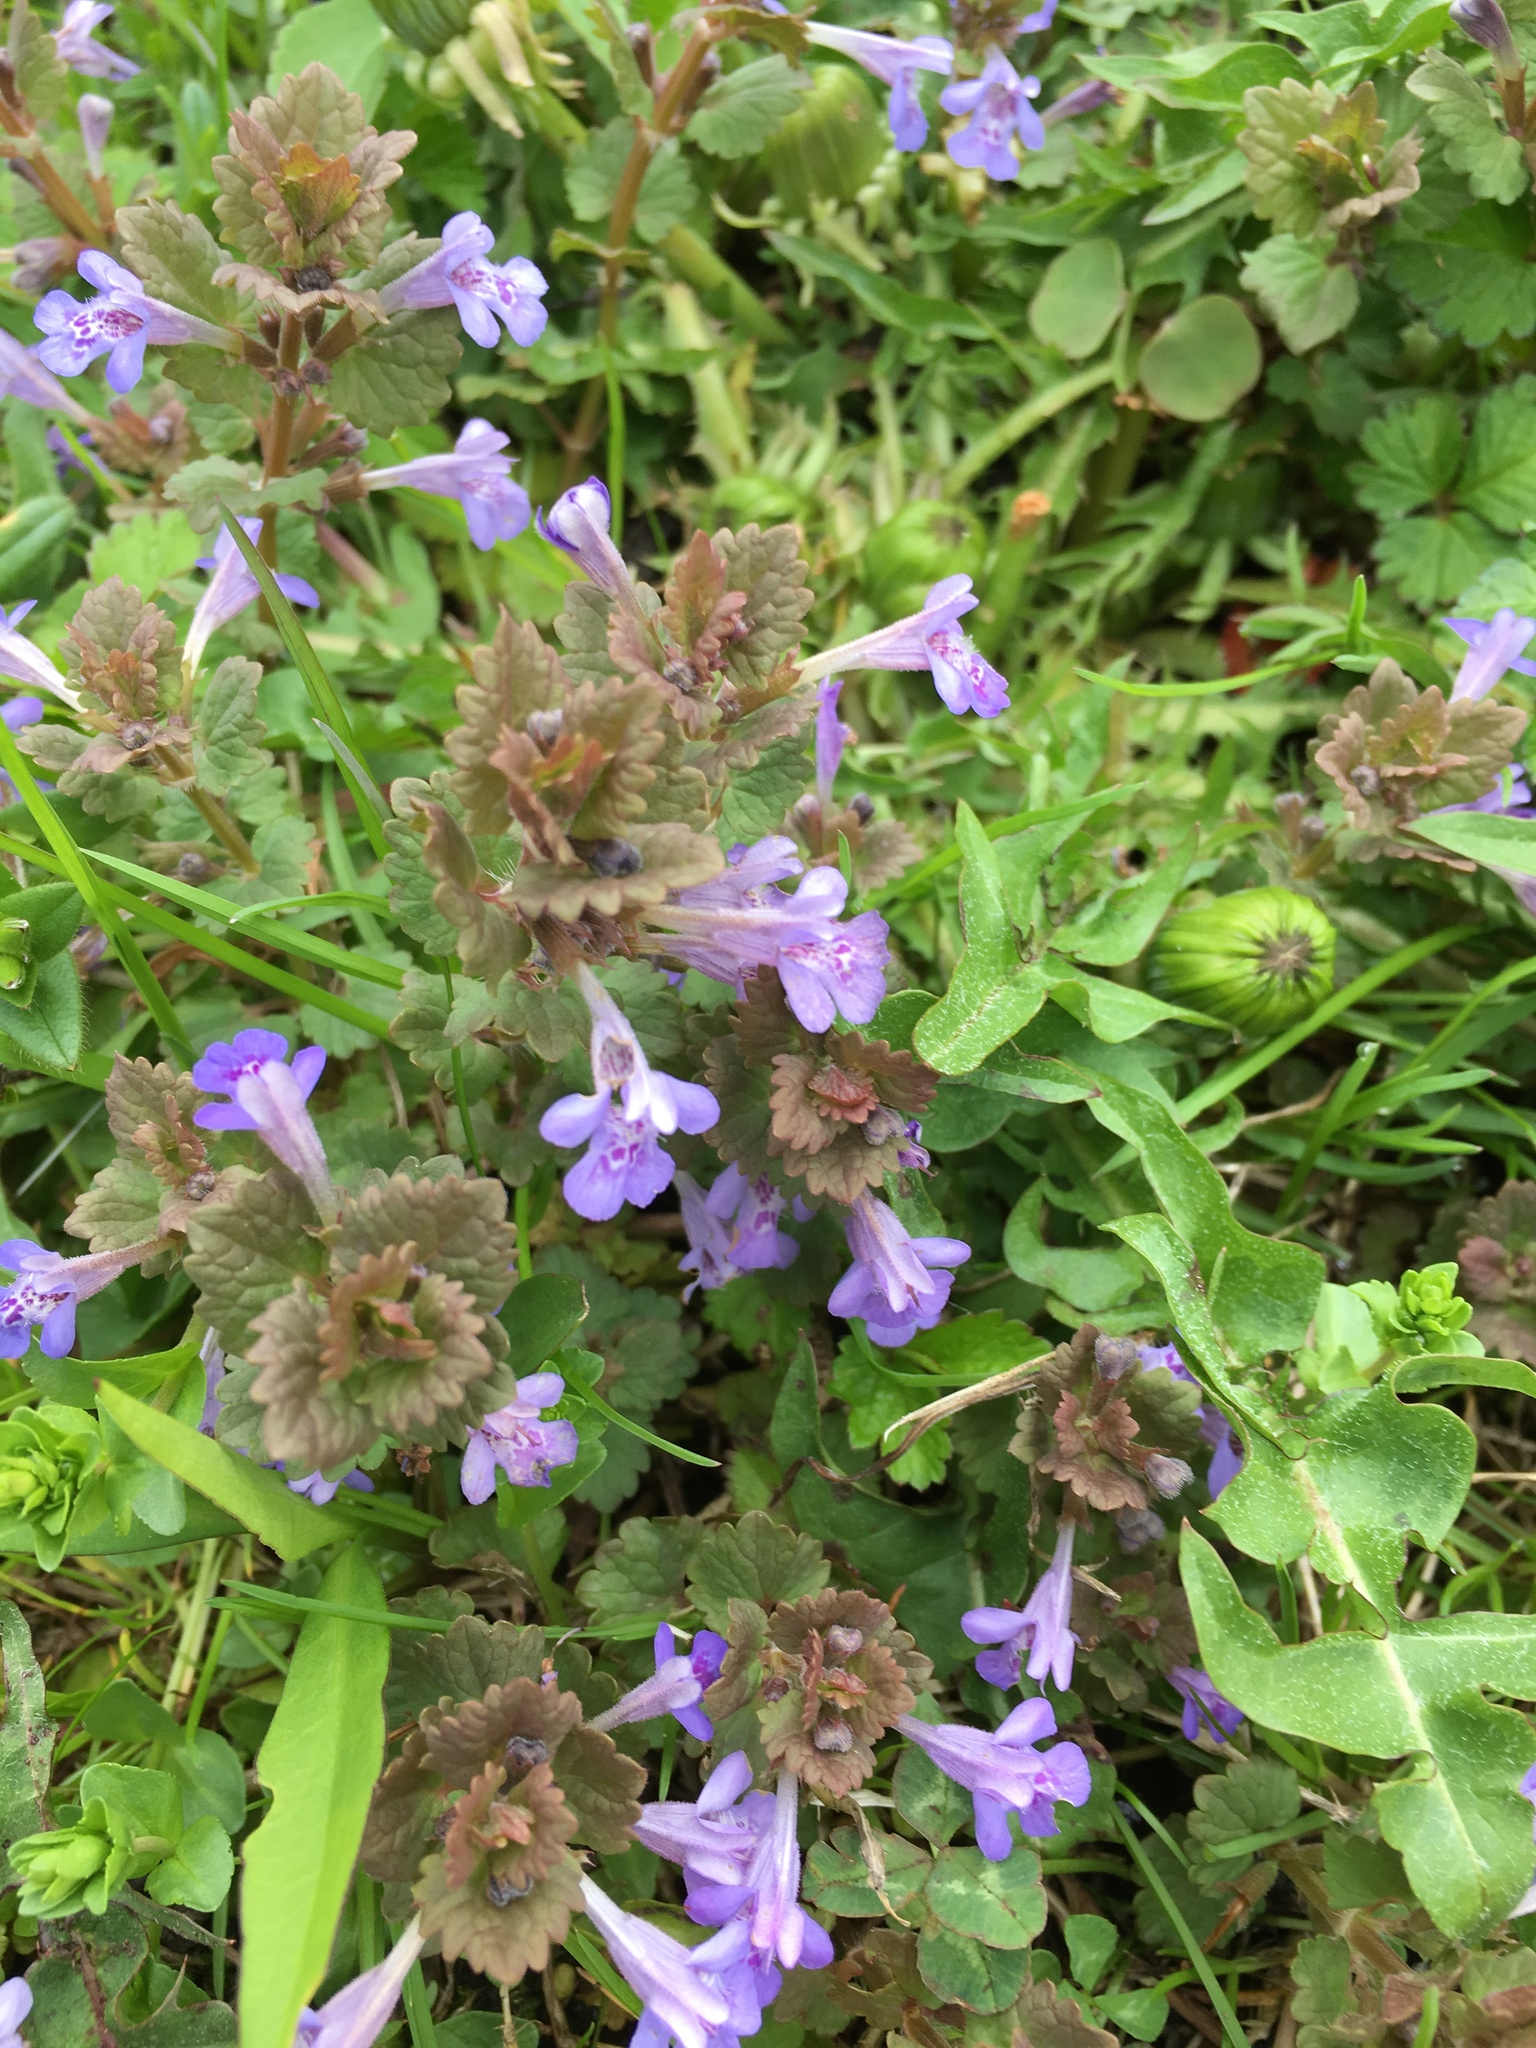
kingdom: Plantae
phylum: Tracheophyta
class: Magnoliopsida
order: Lamiales
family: Lamiaceae
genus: Glechoma
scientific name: Glechoma hederacea
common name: Ground ivy
